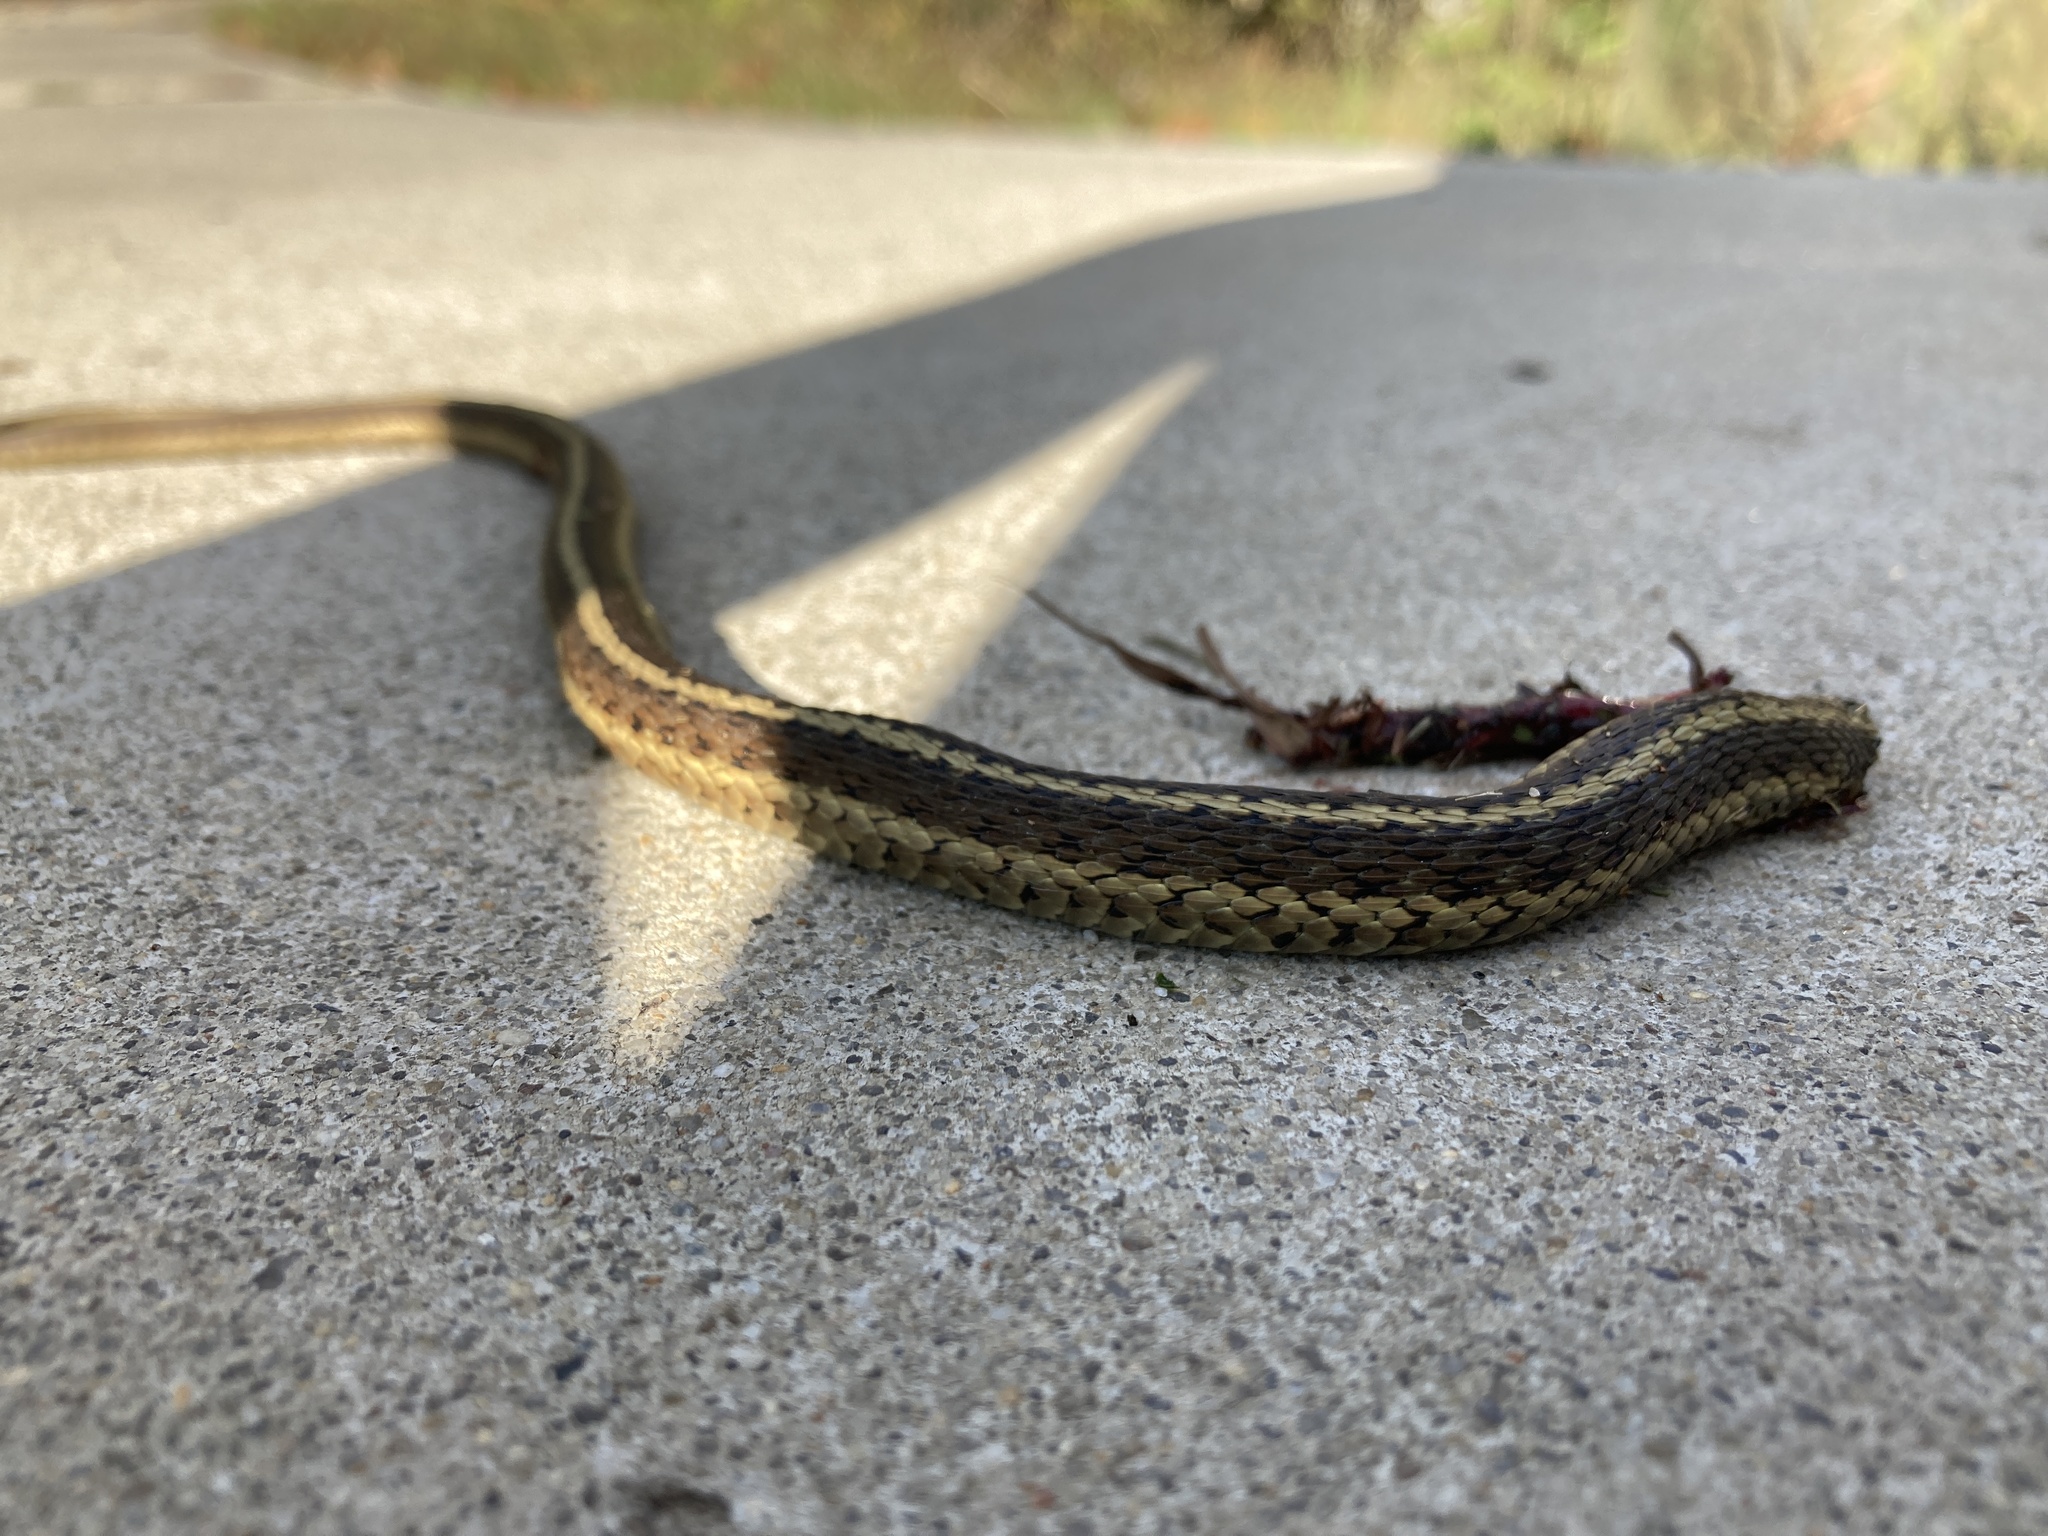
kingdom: Animalia
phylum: Chordata
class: Squamata
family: Colubridae
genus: Thamnophis
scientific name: Thamnophis sirtalis
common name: Common garter snake
